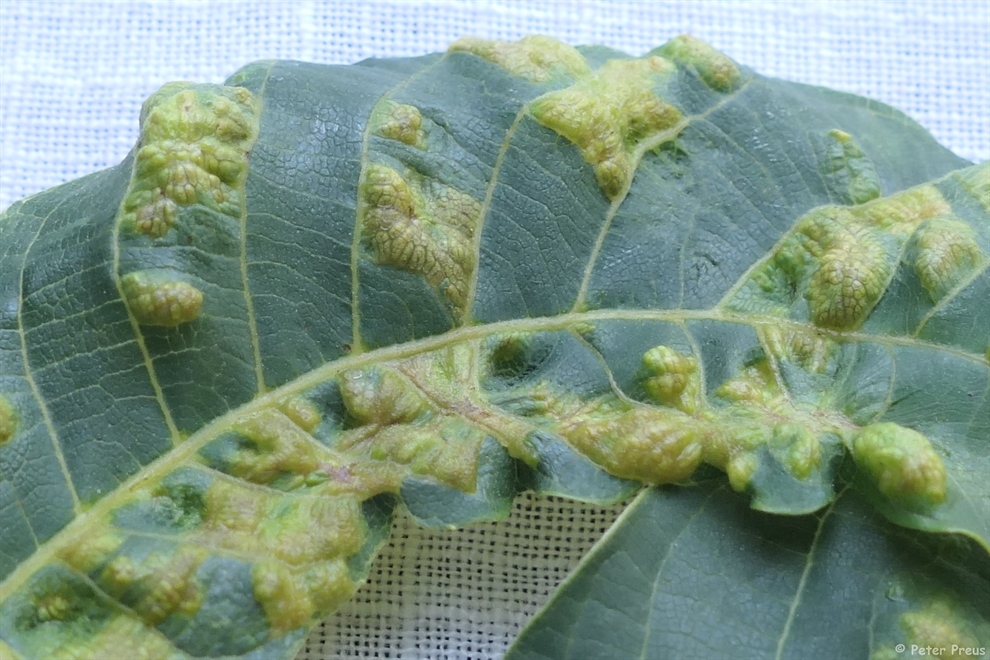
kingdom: Animalia
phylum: Arthropoda
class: Arachnida
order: Trombidiformes
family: Eriophyidae
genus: Aceria
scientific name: Aceria erinea
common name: Persian walnut erineum mite
